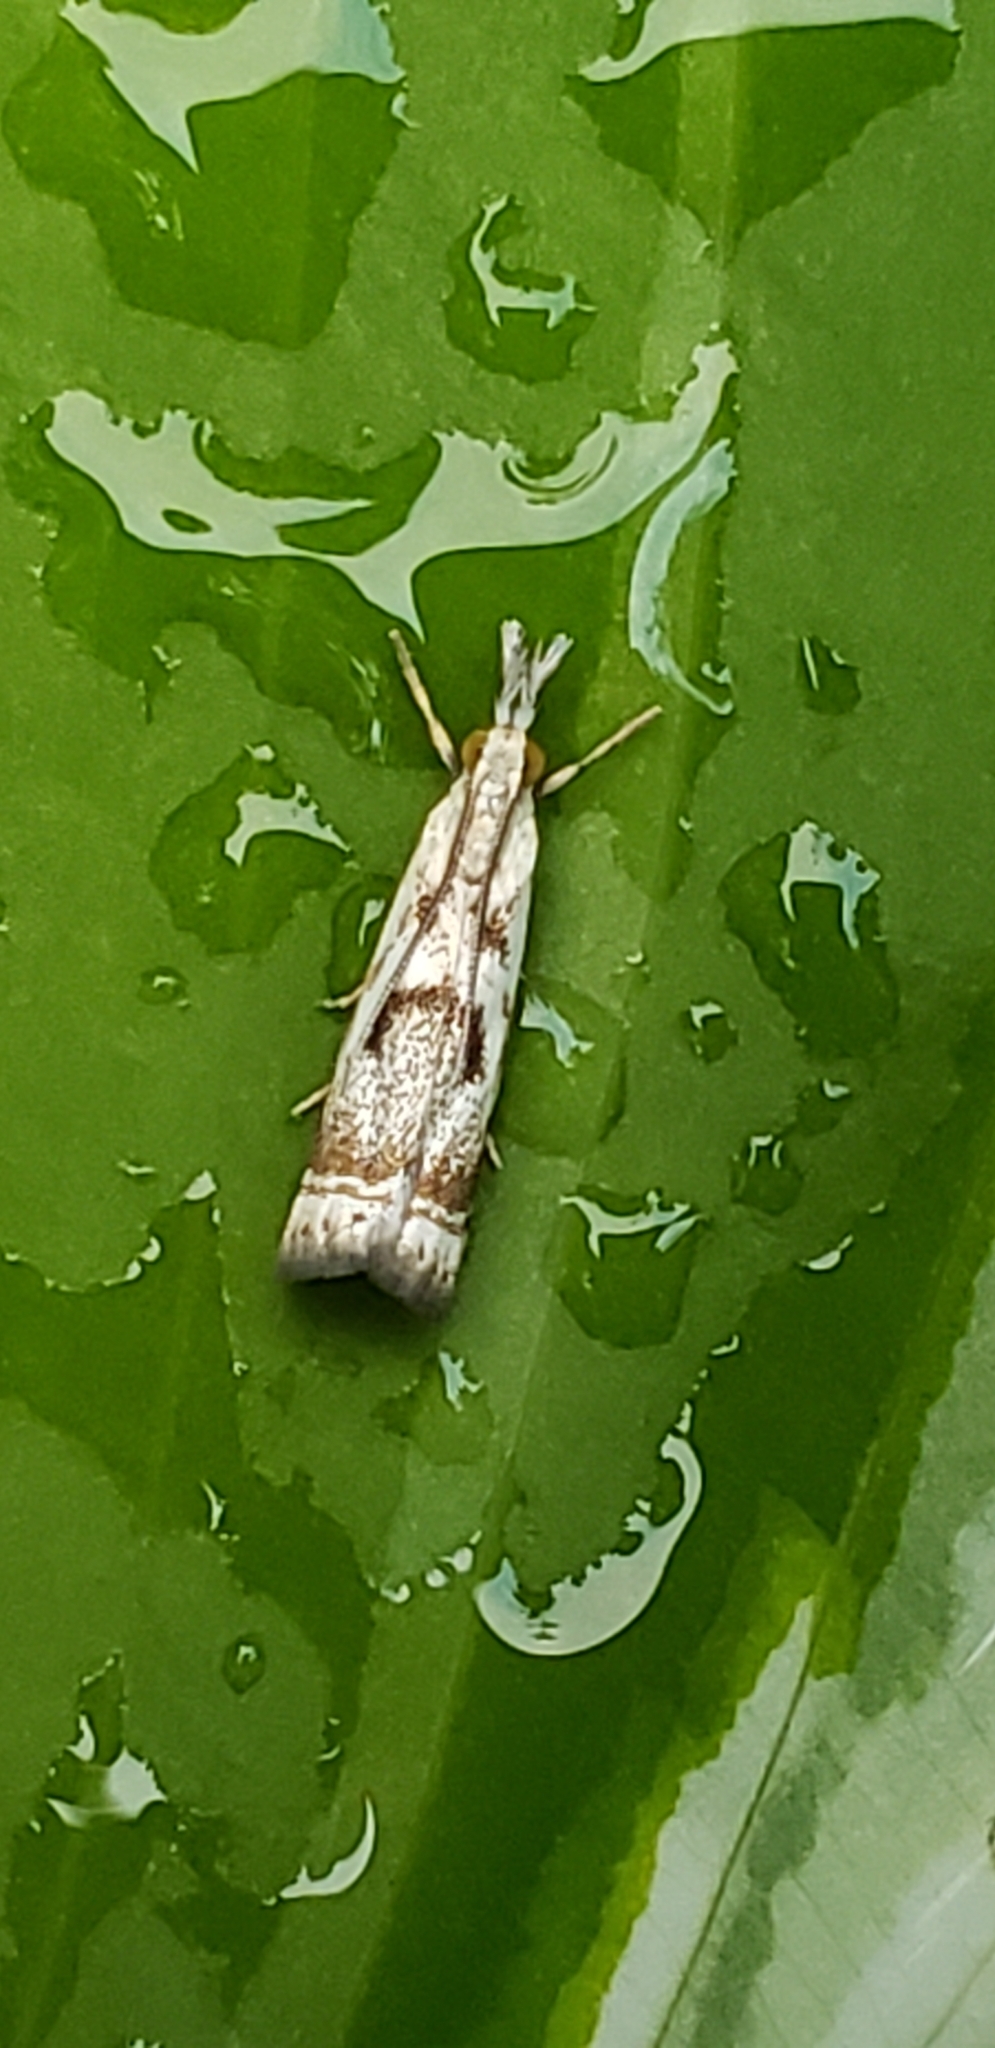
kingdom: Animalia
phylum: Arthropoda
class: Insecta
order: Lepidoptera
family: Crambidae
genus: Microcrambus
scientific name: Microcrambus elegans
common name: Elegant grass-veneer
